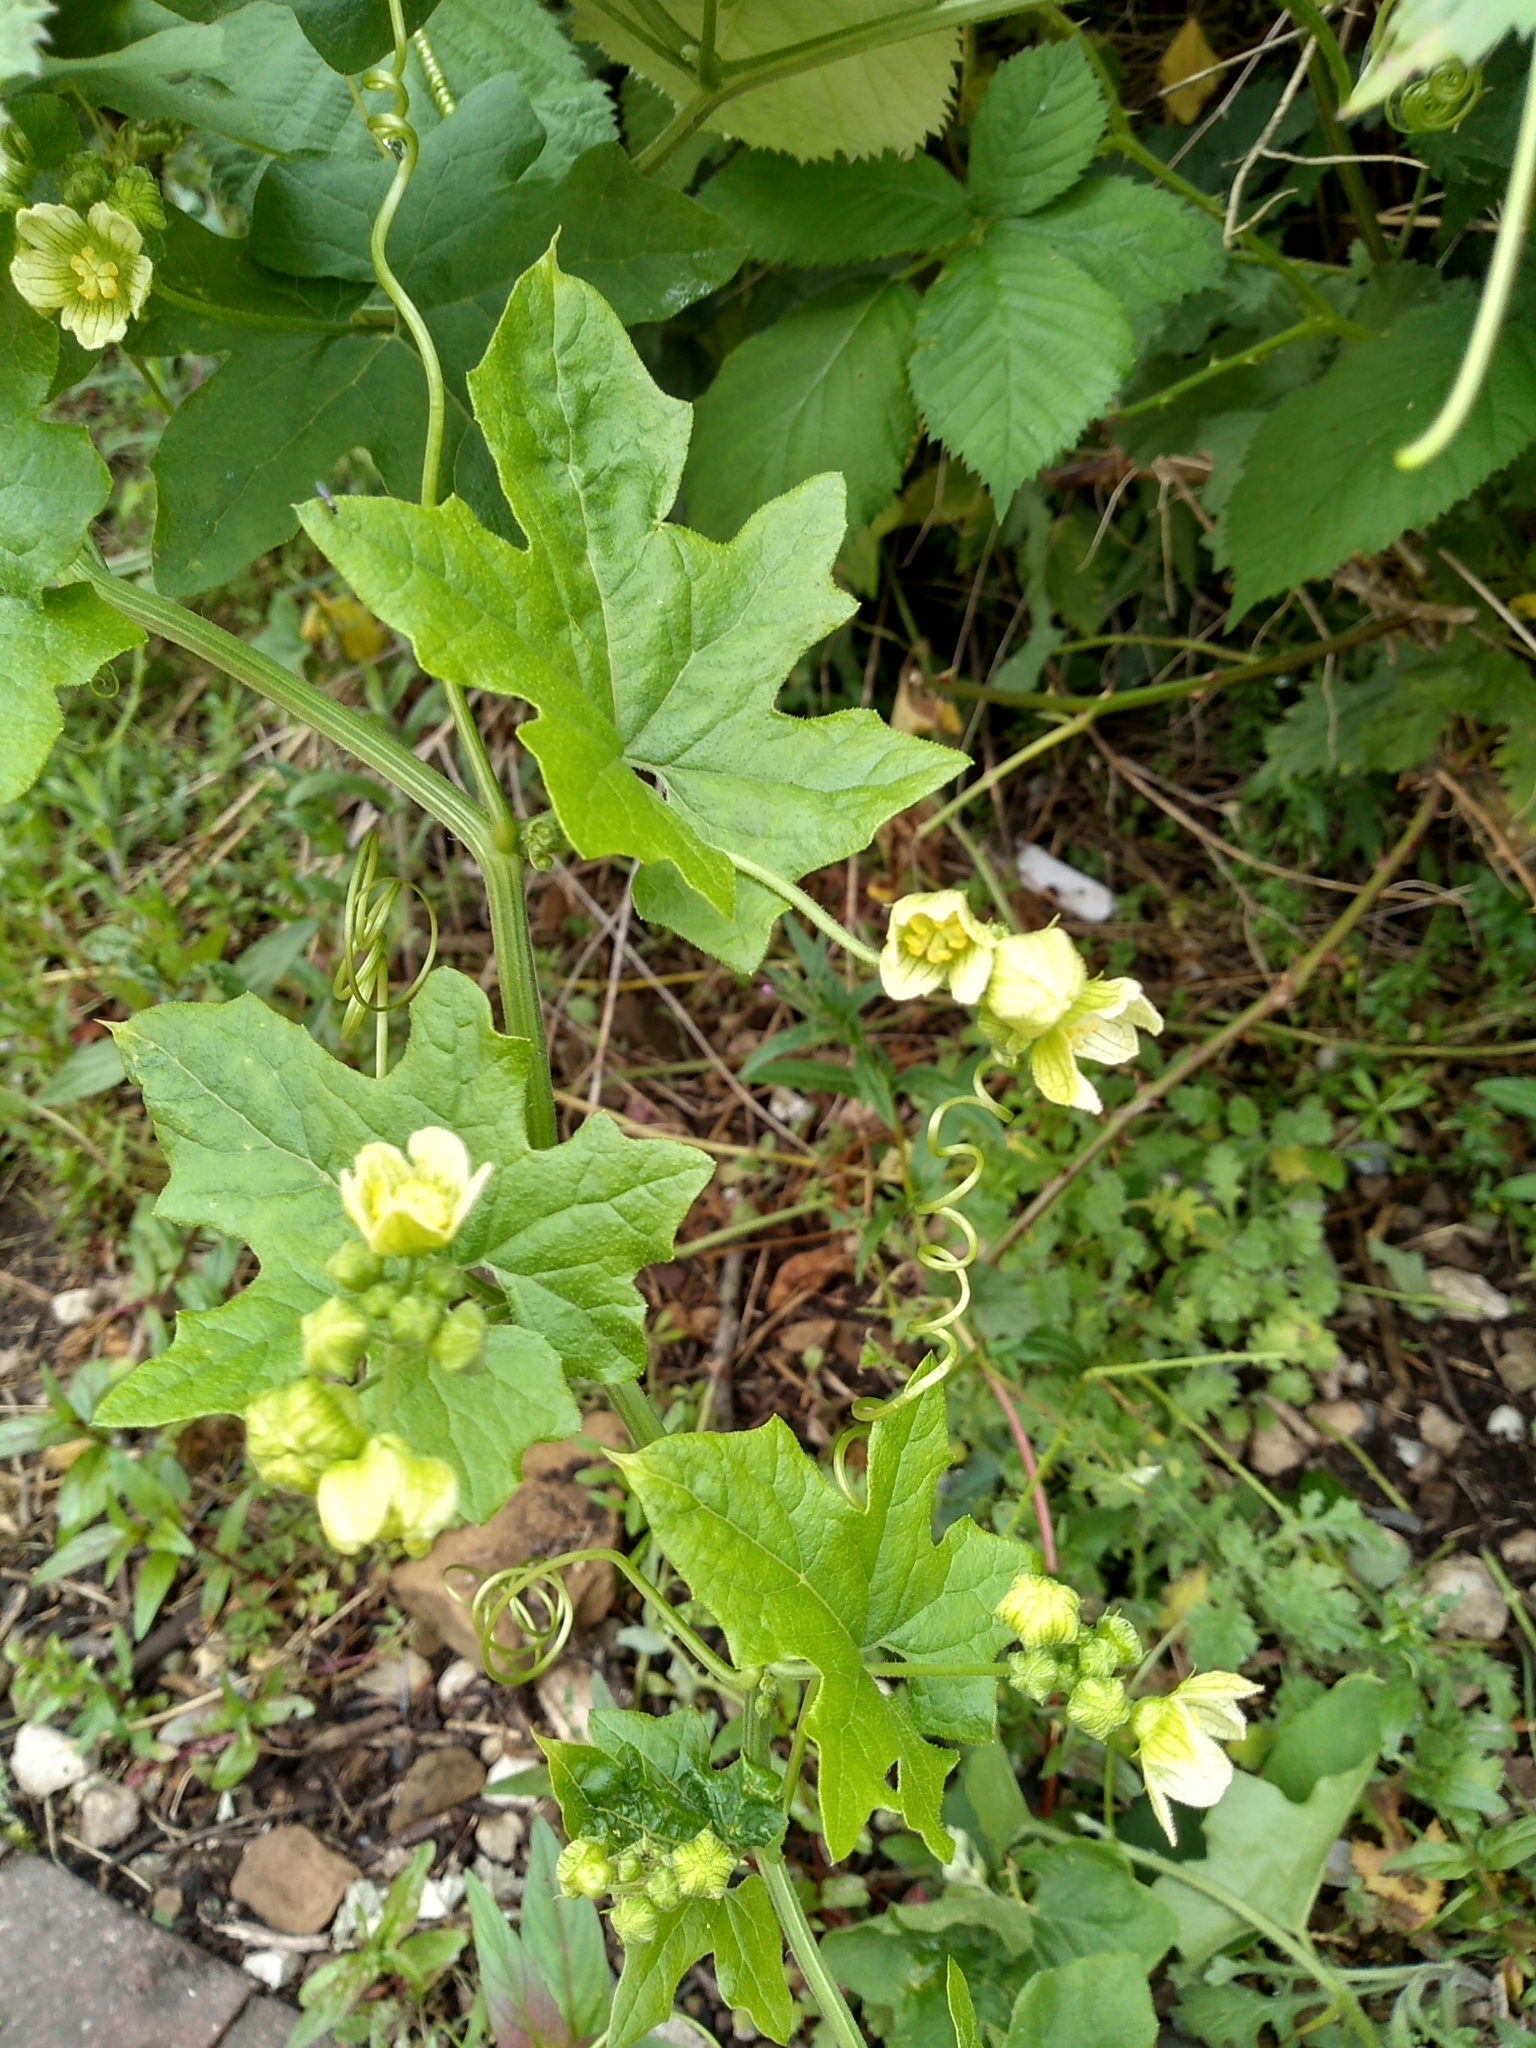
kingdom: Plantae
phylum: Tracheophyta
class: Magnoliopsida
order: Cucurbitales
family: Cucurbitaceae
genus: Bryonia
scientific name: Bryonia cretica
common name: Cretan bryony
